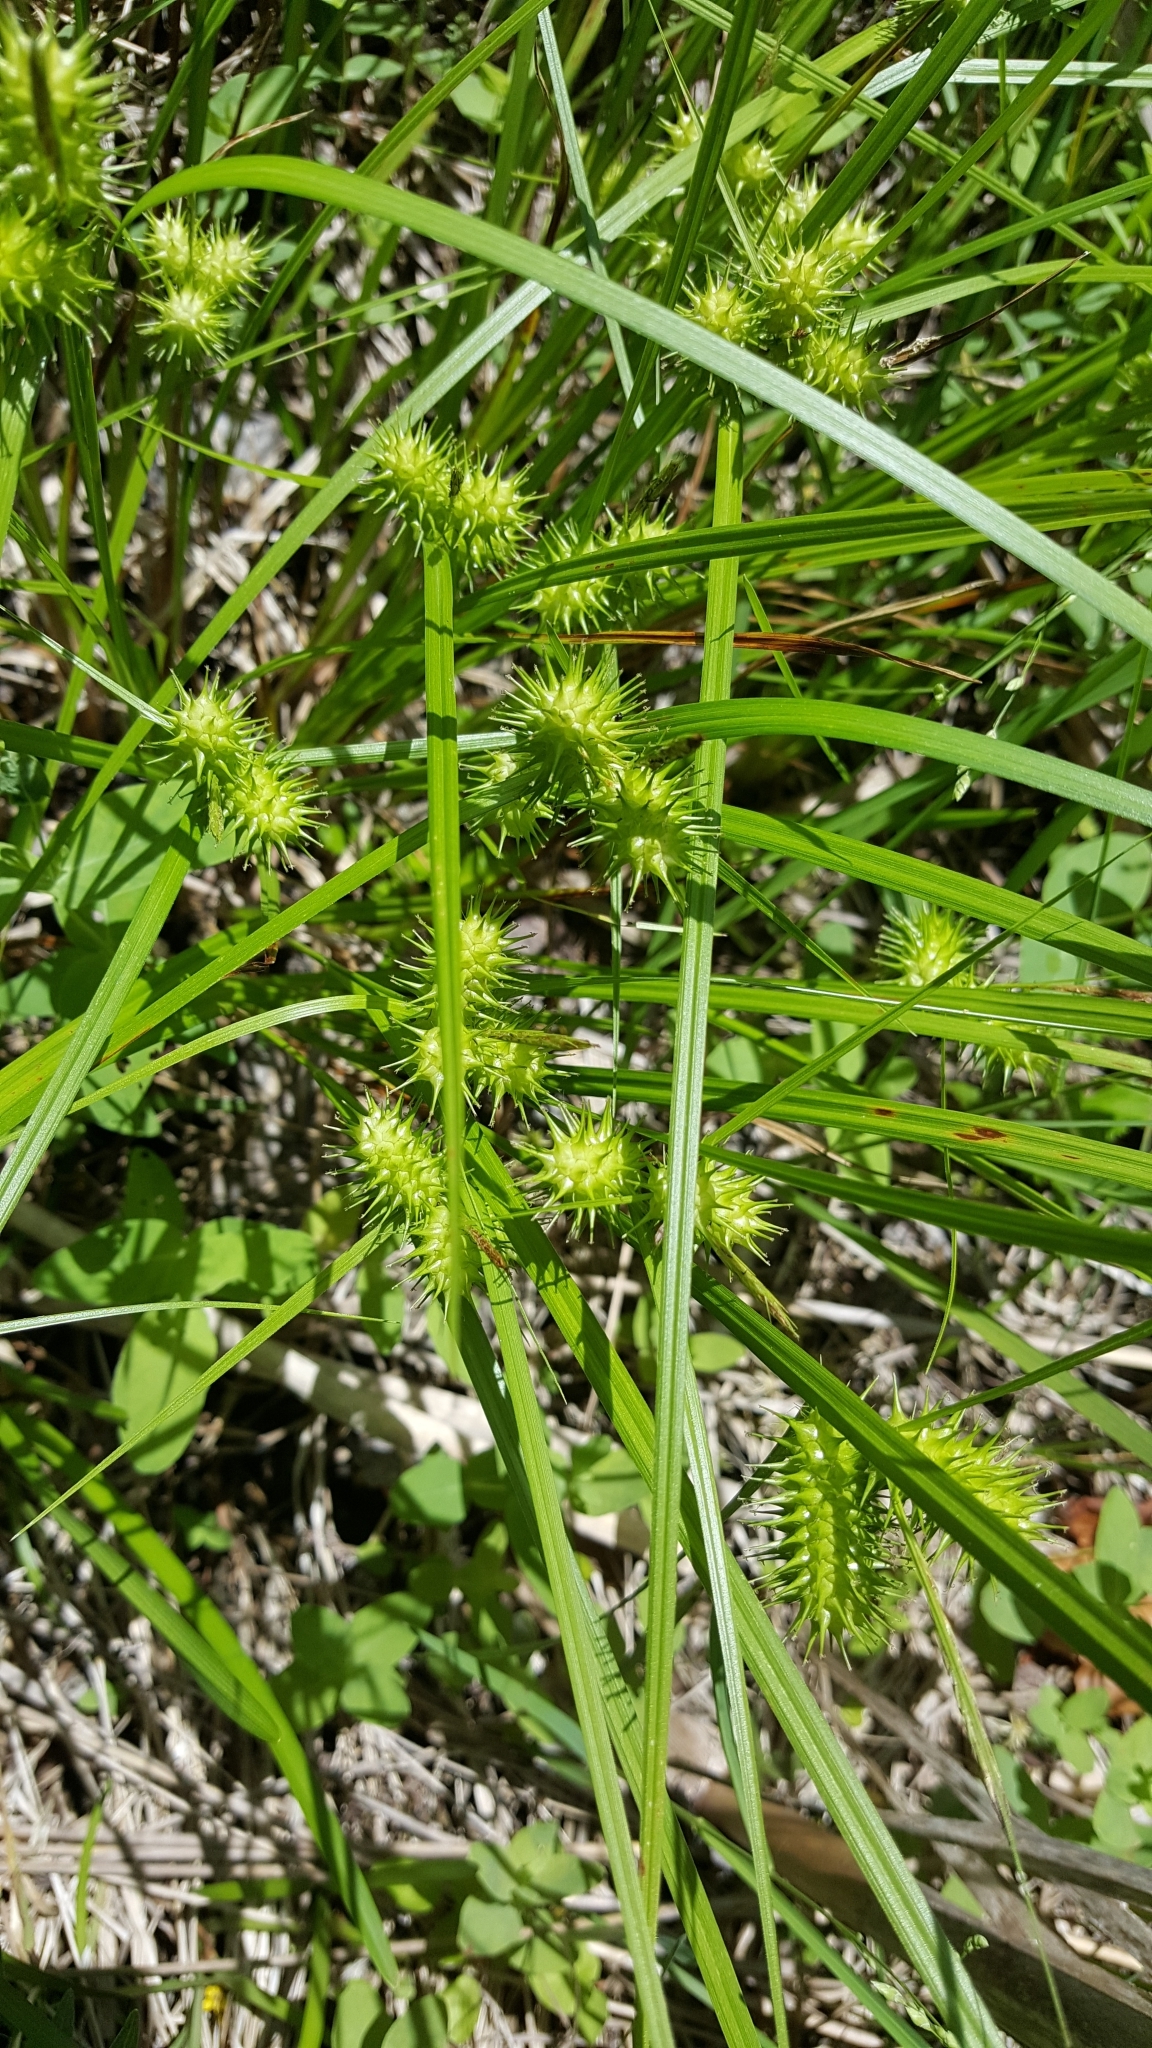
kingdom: Plantae
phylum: Tracheophyta
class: Liliopsida
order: Poales
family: Cyperaceae
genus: Carex
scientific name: Carex lurida
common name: Sallow sedge
